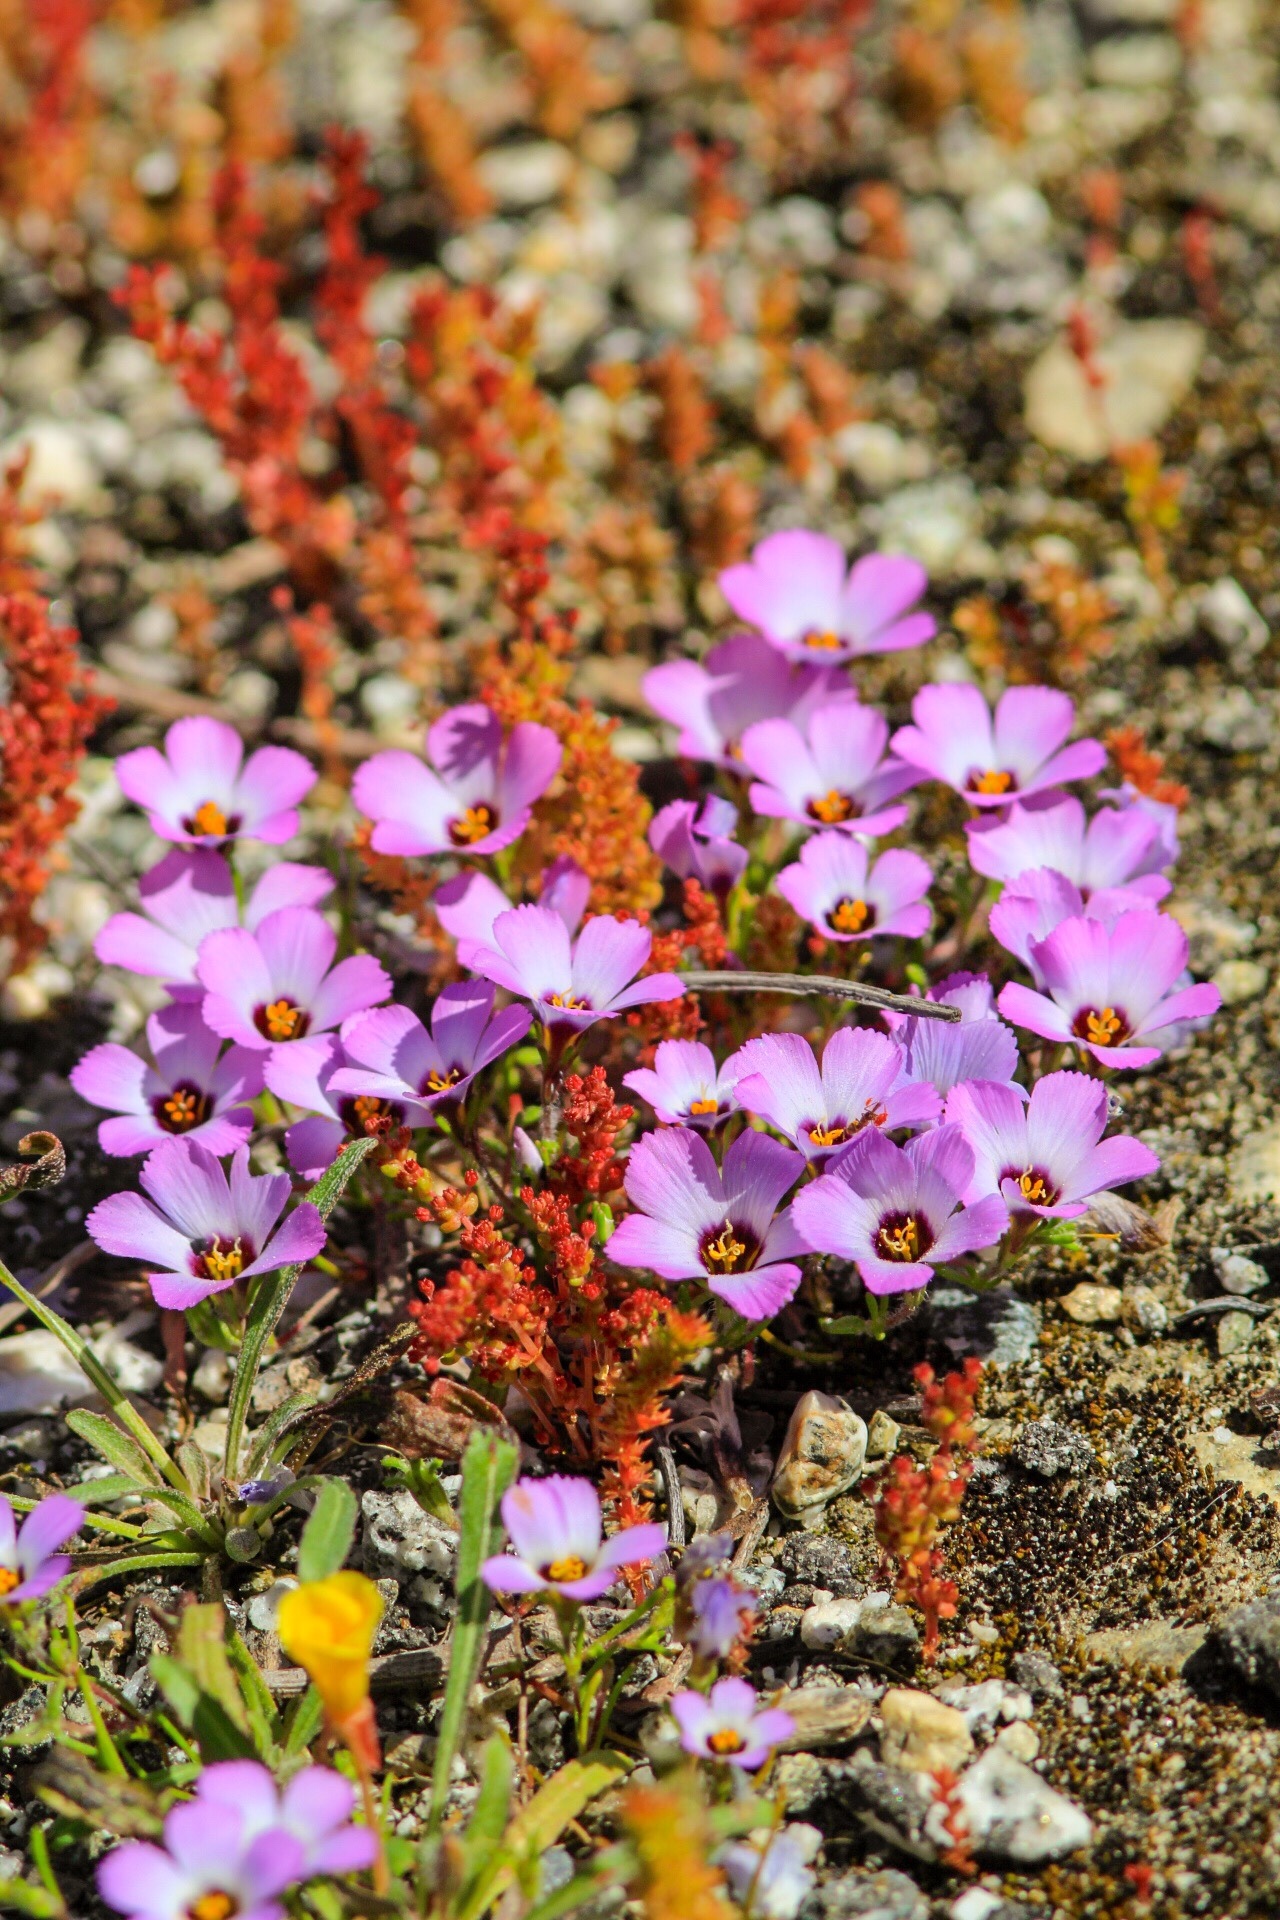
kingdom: Plantae
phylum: Tracheophyta
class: Magnoliopsida
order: Ericales
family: Polemoniaceae
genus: Linanthus
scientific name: Linanthus dianthiflorus
